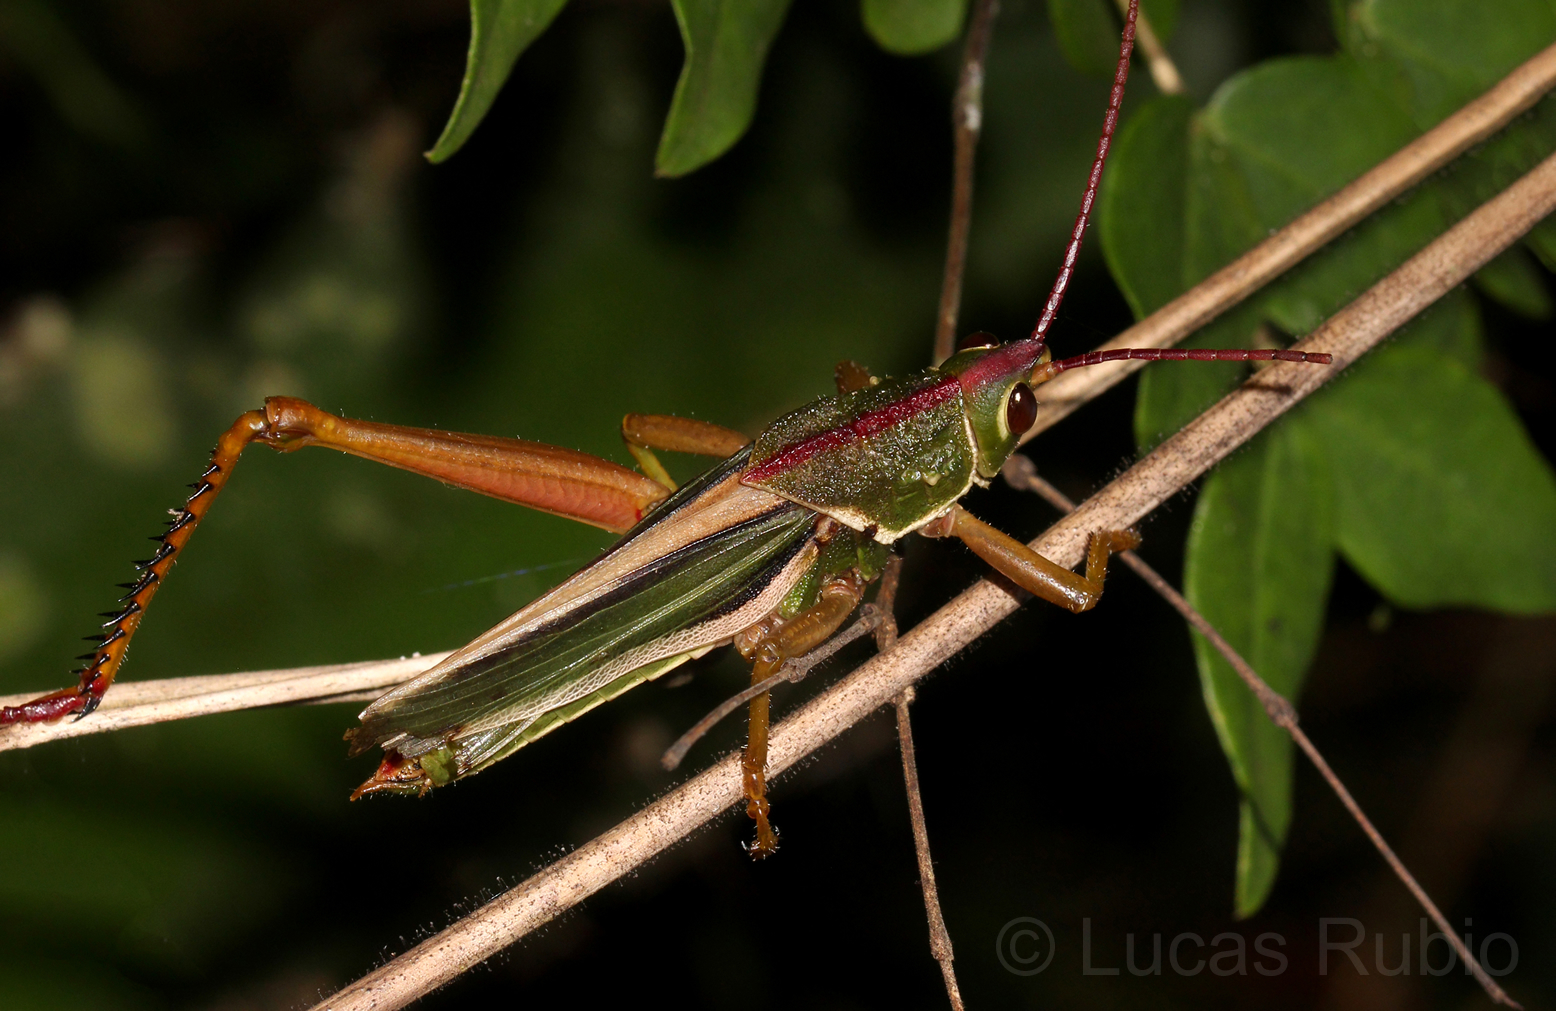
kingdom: Animalia
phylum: Arthropoda
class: Insecta
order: Orthoptera
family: Romaleidae
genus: Staleochlora
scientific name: Staleochlora arcuata
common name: Paraná purple-backed grasshopper
